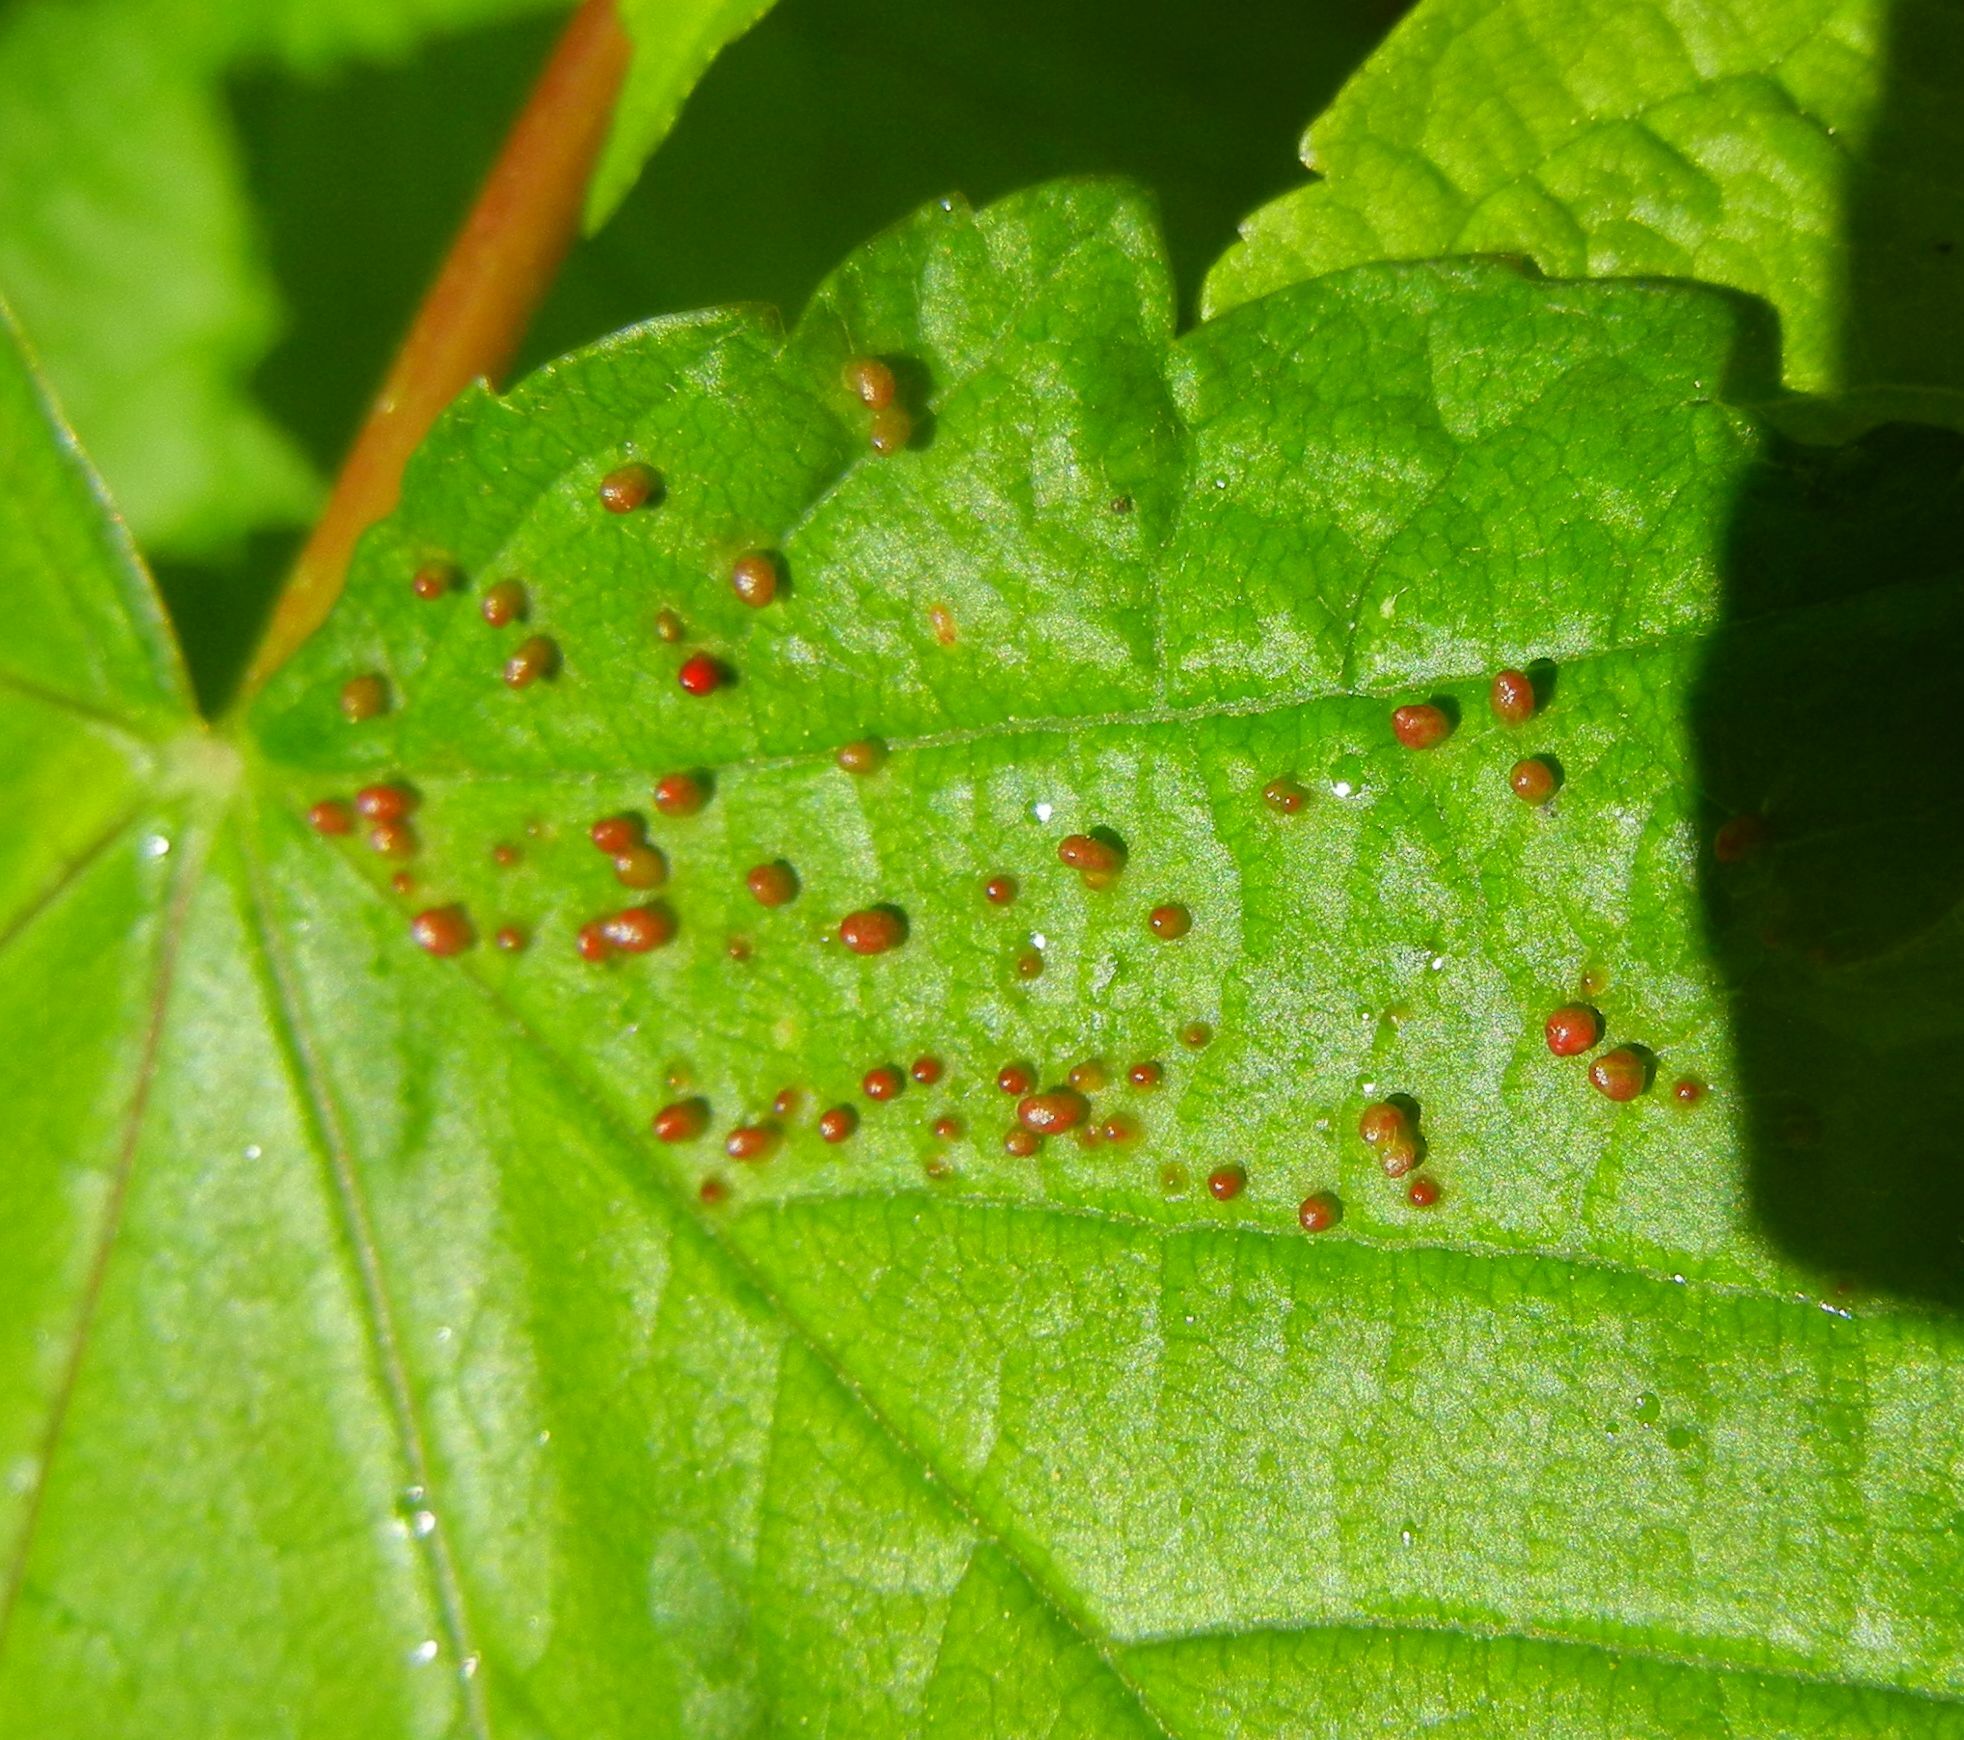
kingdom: Animalia
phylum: Arthropoda
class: Arachnida
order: Trombidiformes
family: Eriophyidae
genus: Aceria
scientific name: Aceria cephaloneus
